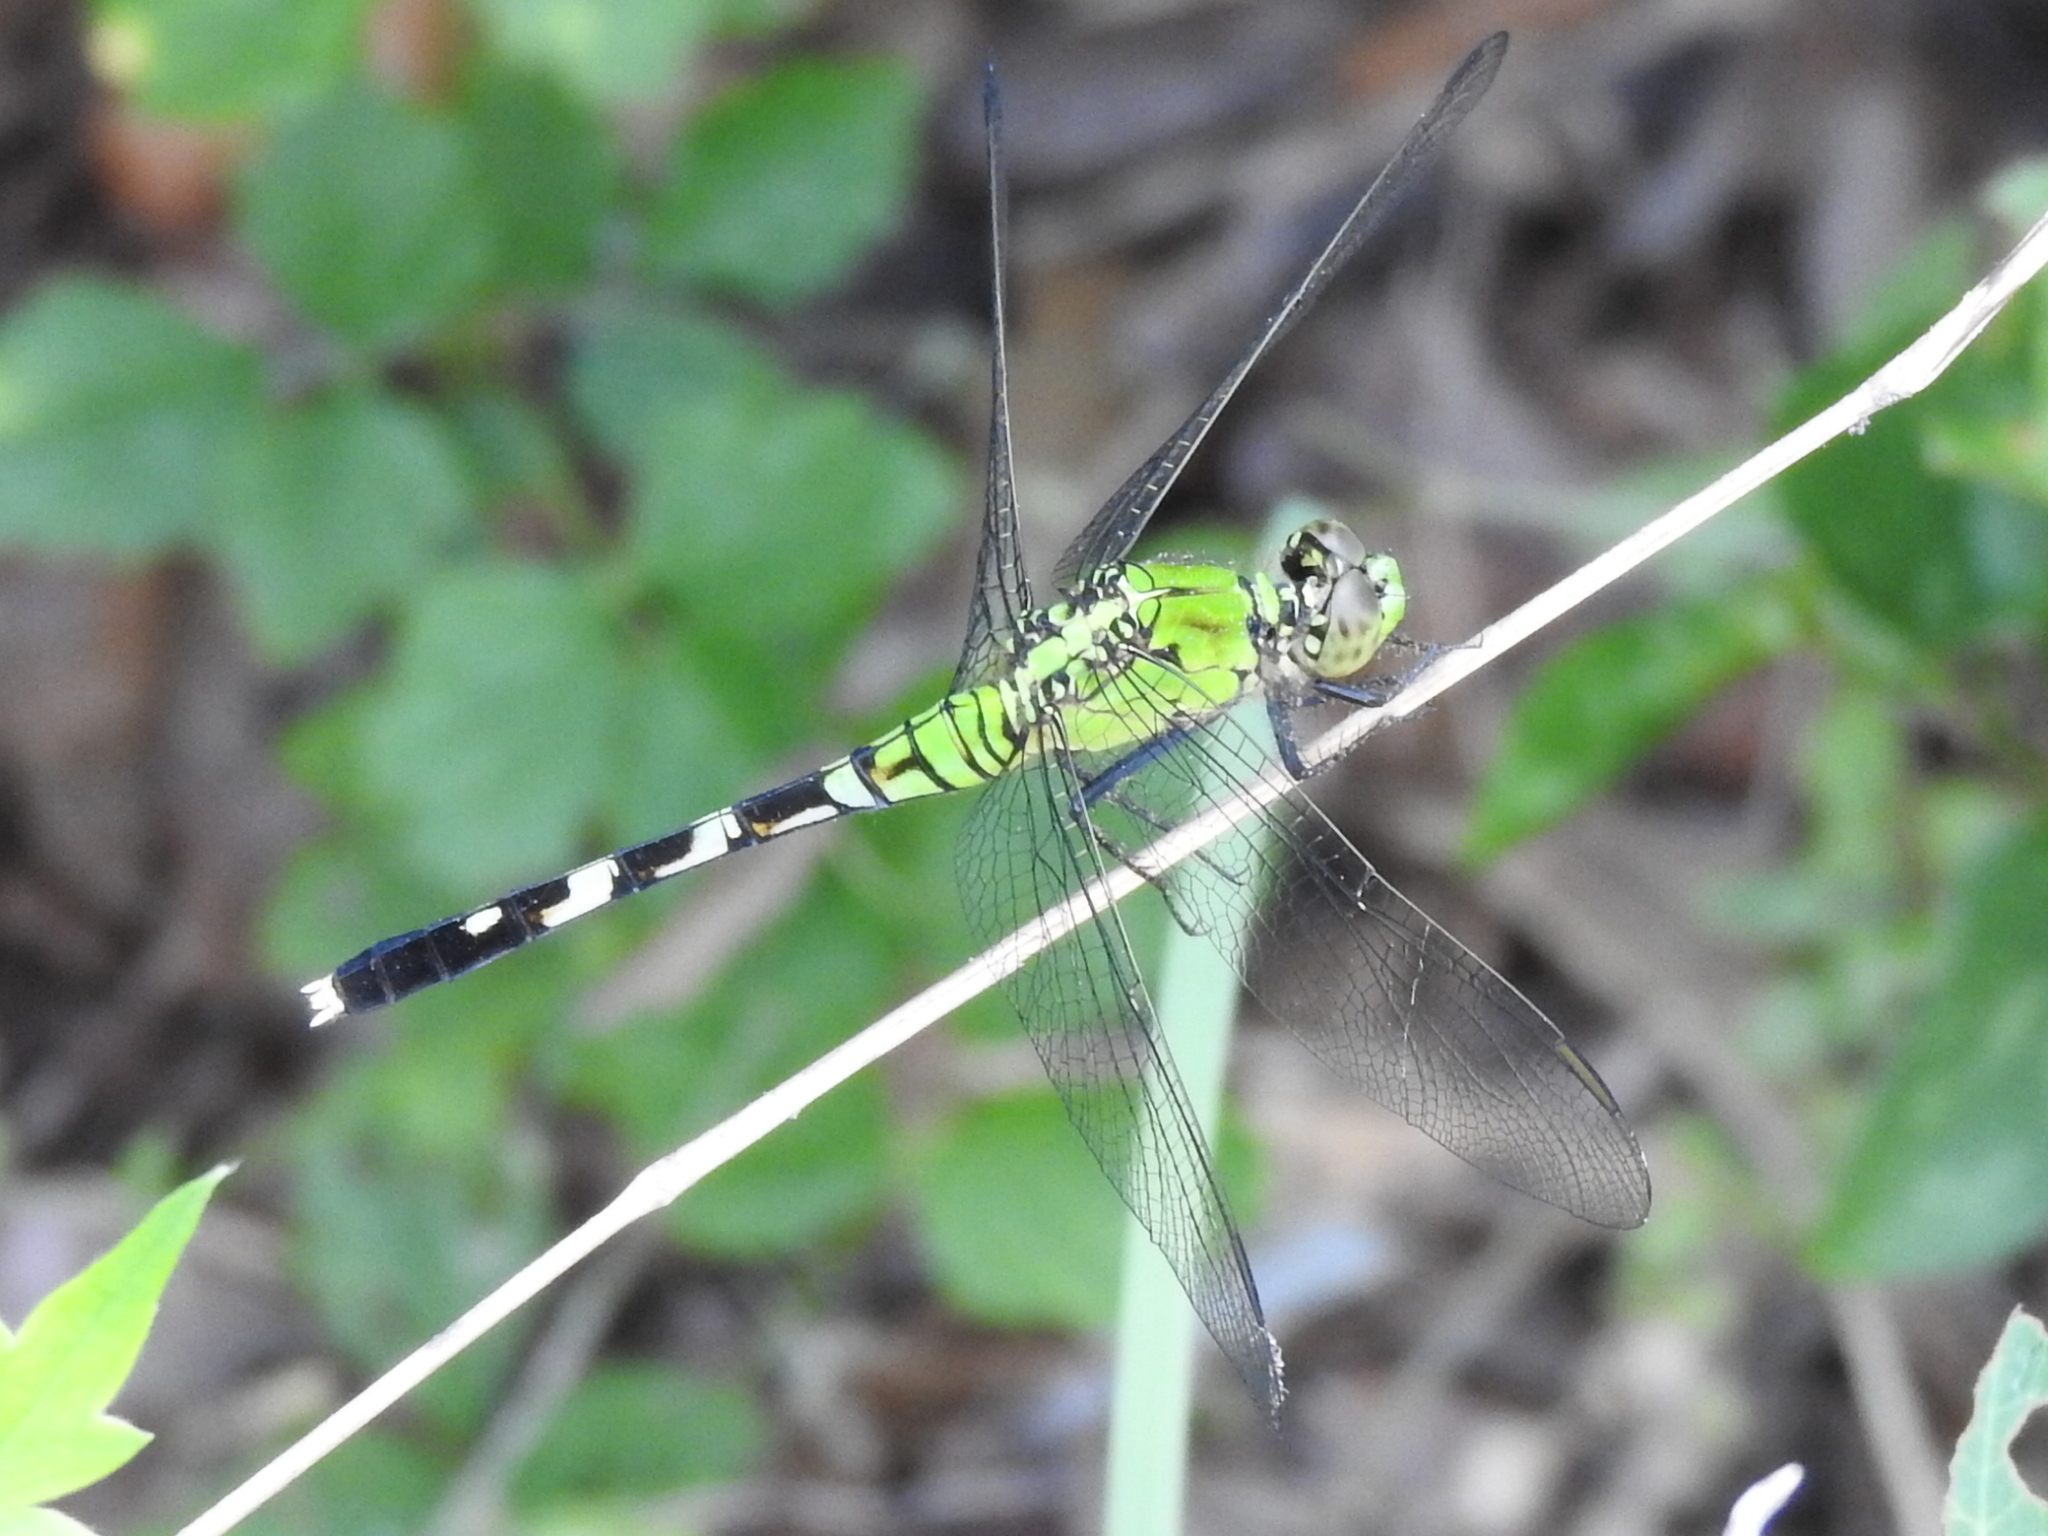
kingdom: Animalia
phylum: Arthropoda
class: Insecta
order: Odonata
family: Libellulidae
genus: Erythemis
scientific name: Erythemis simplicicollis
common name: Eastern pondhawk
